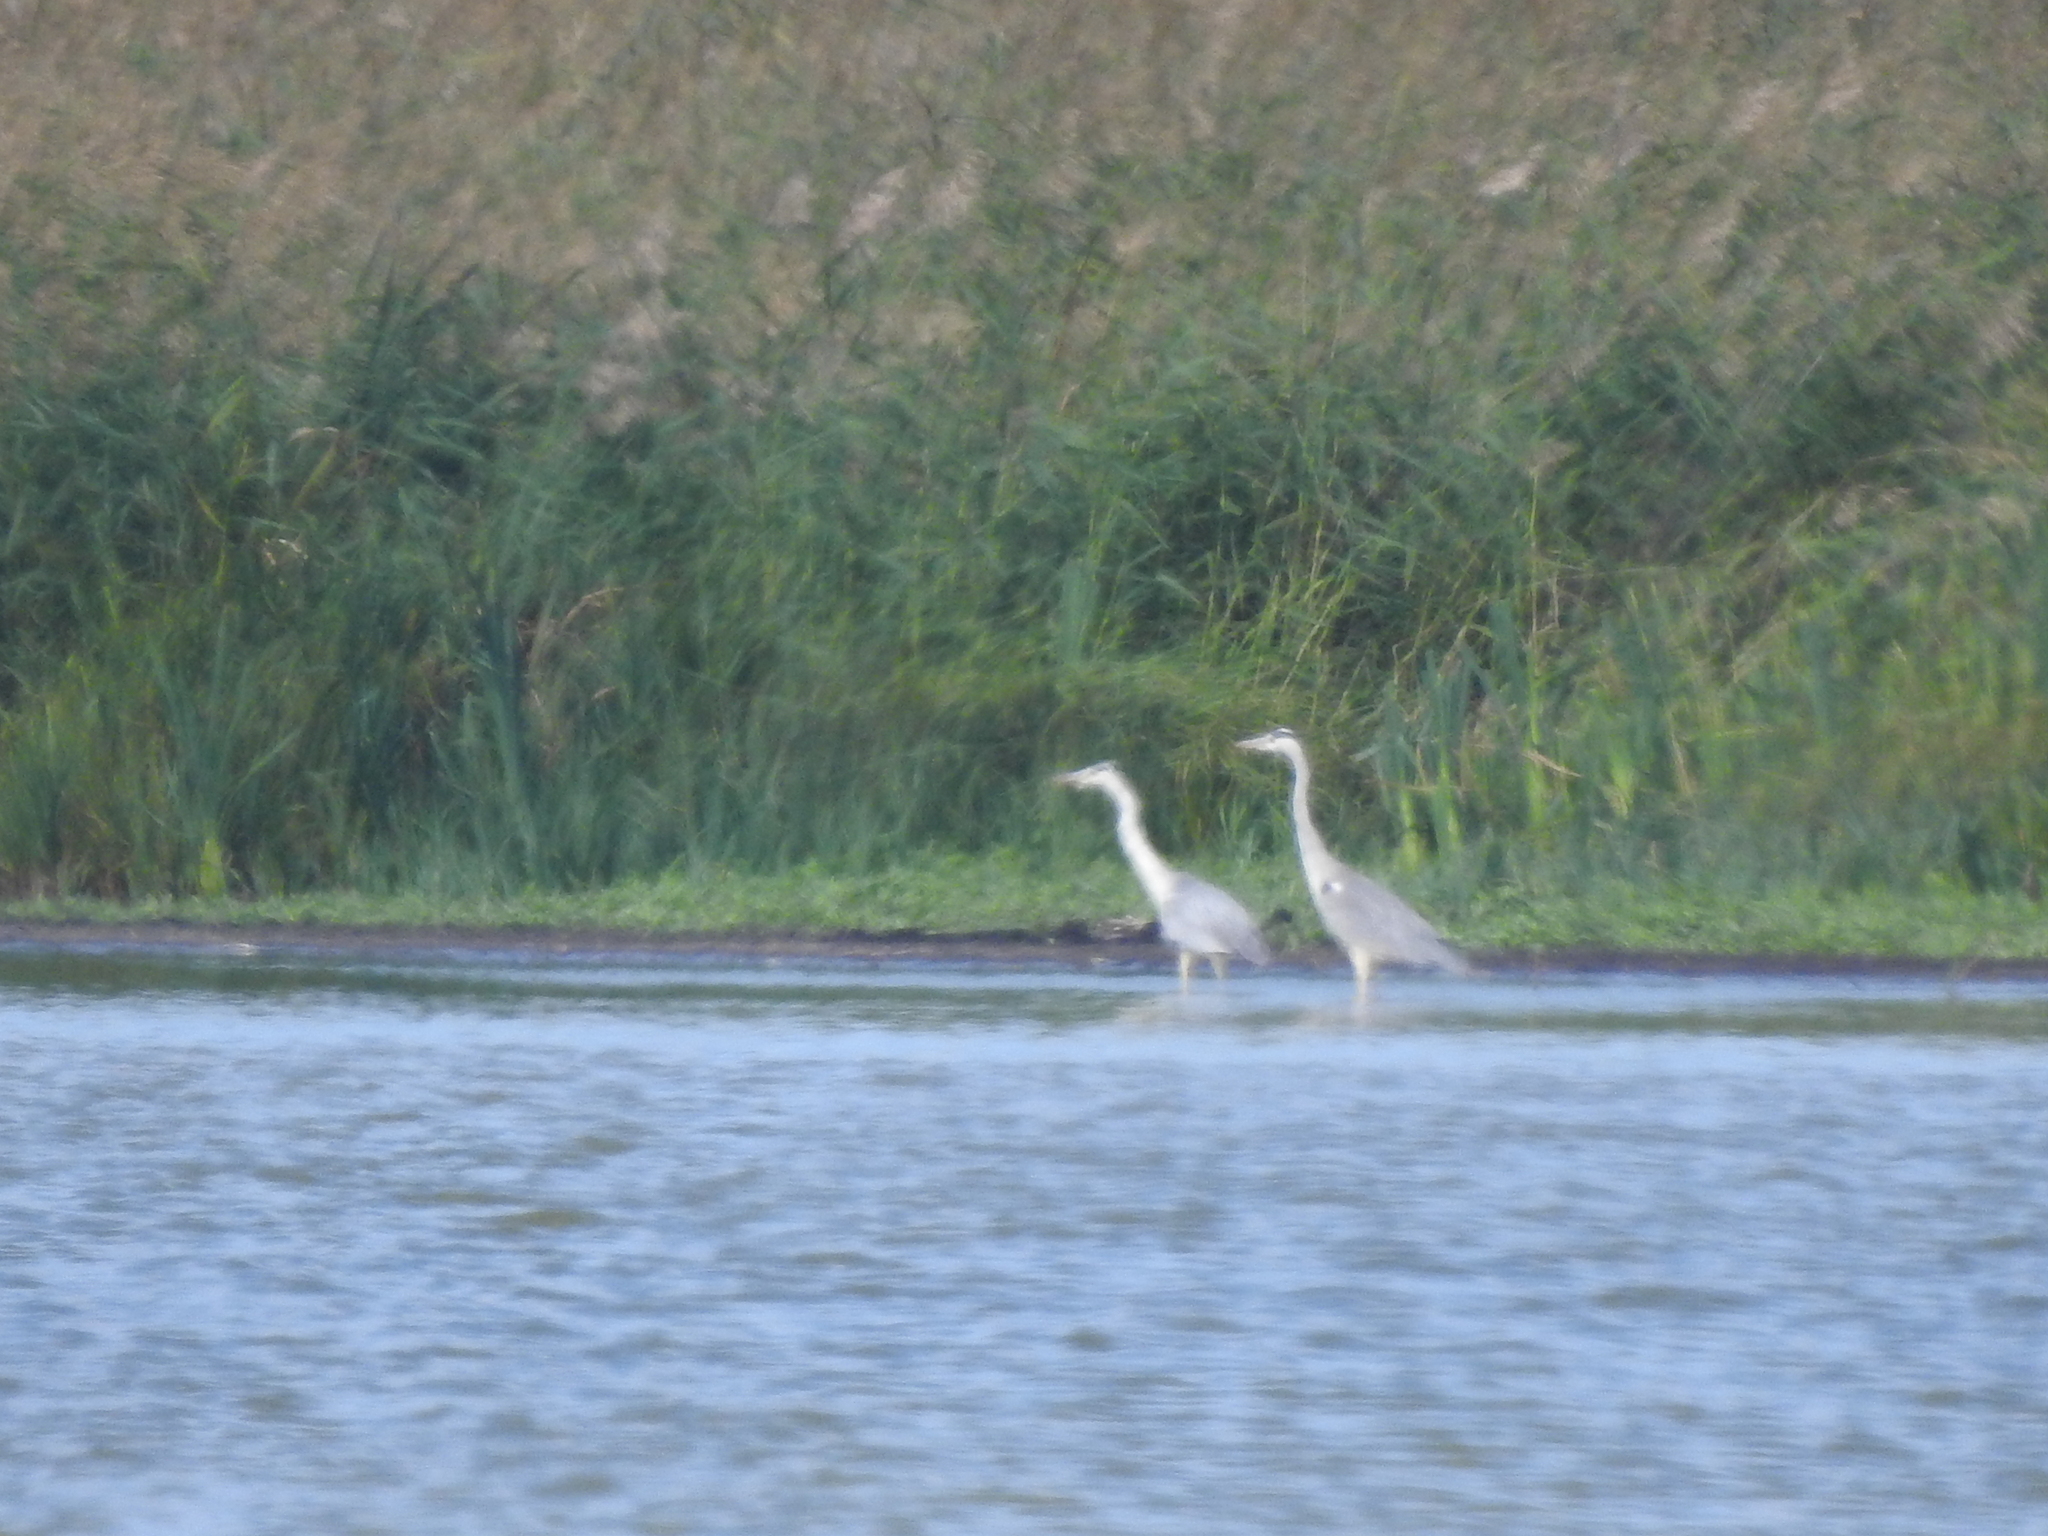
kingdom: Animalia
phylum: Chordata
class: Aves
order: Pelecaniformes
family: Ardeidae
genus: Ardea
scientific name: Ardea cinerea
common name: Grey heron
